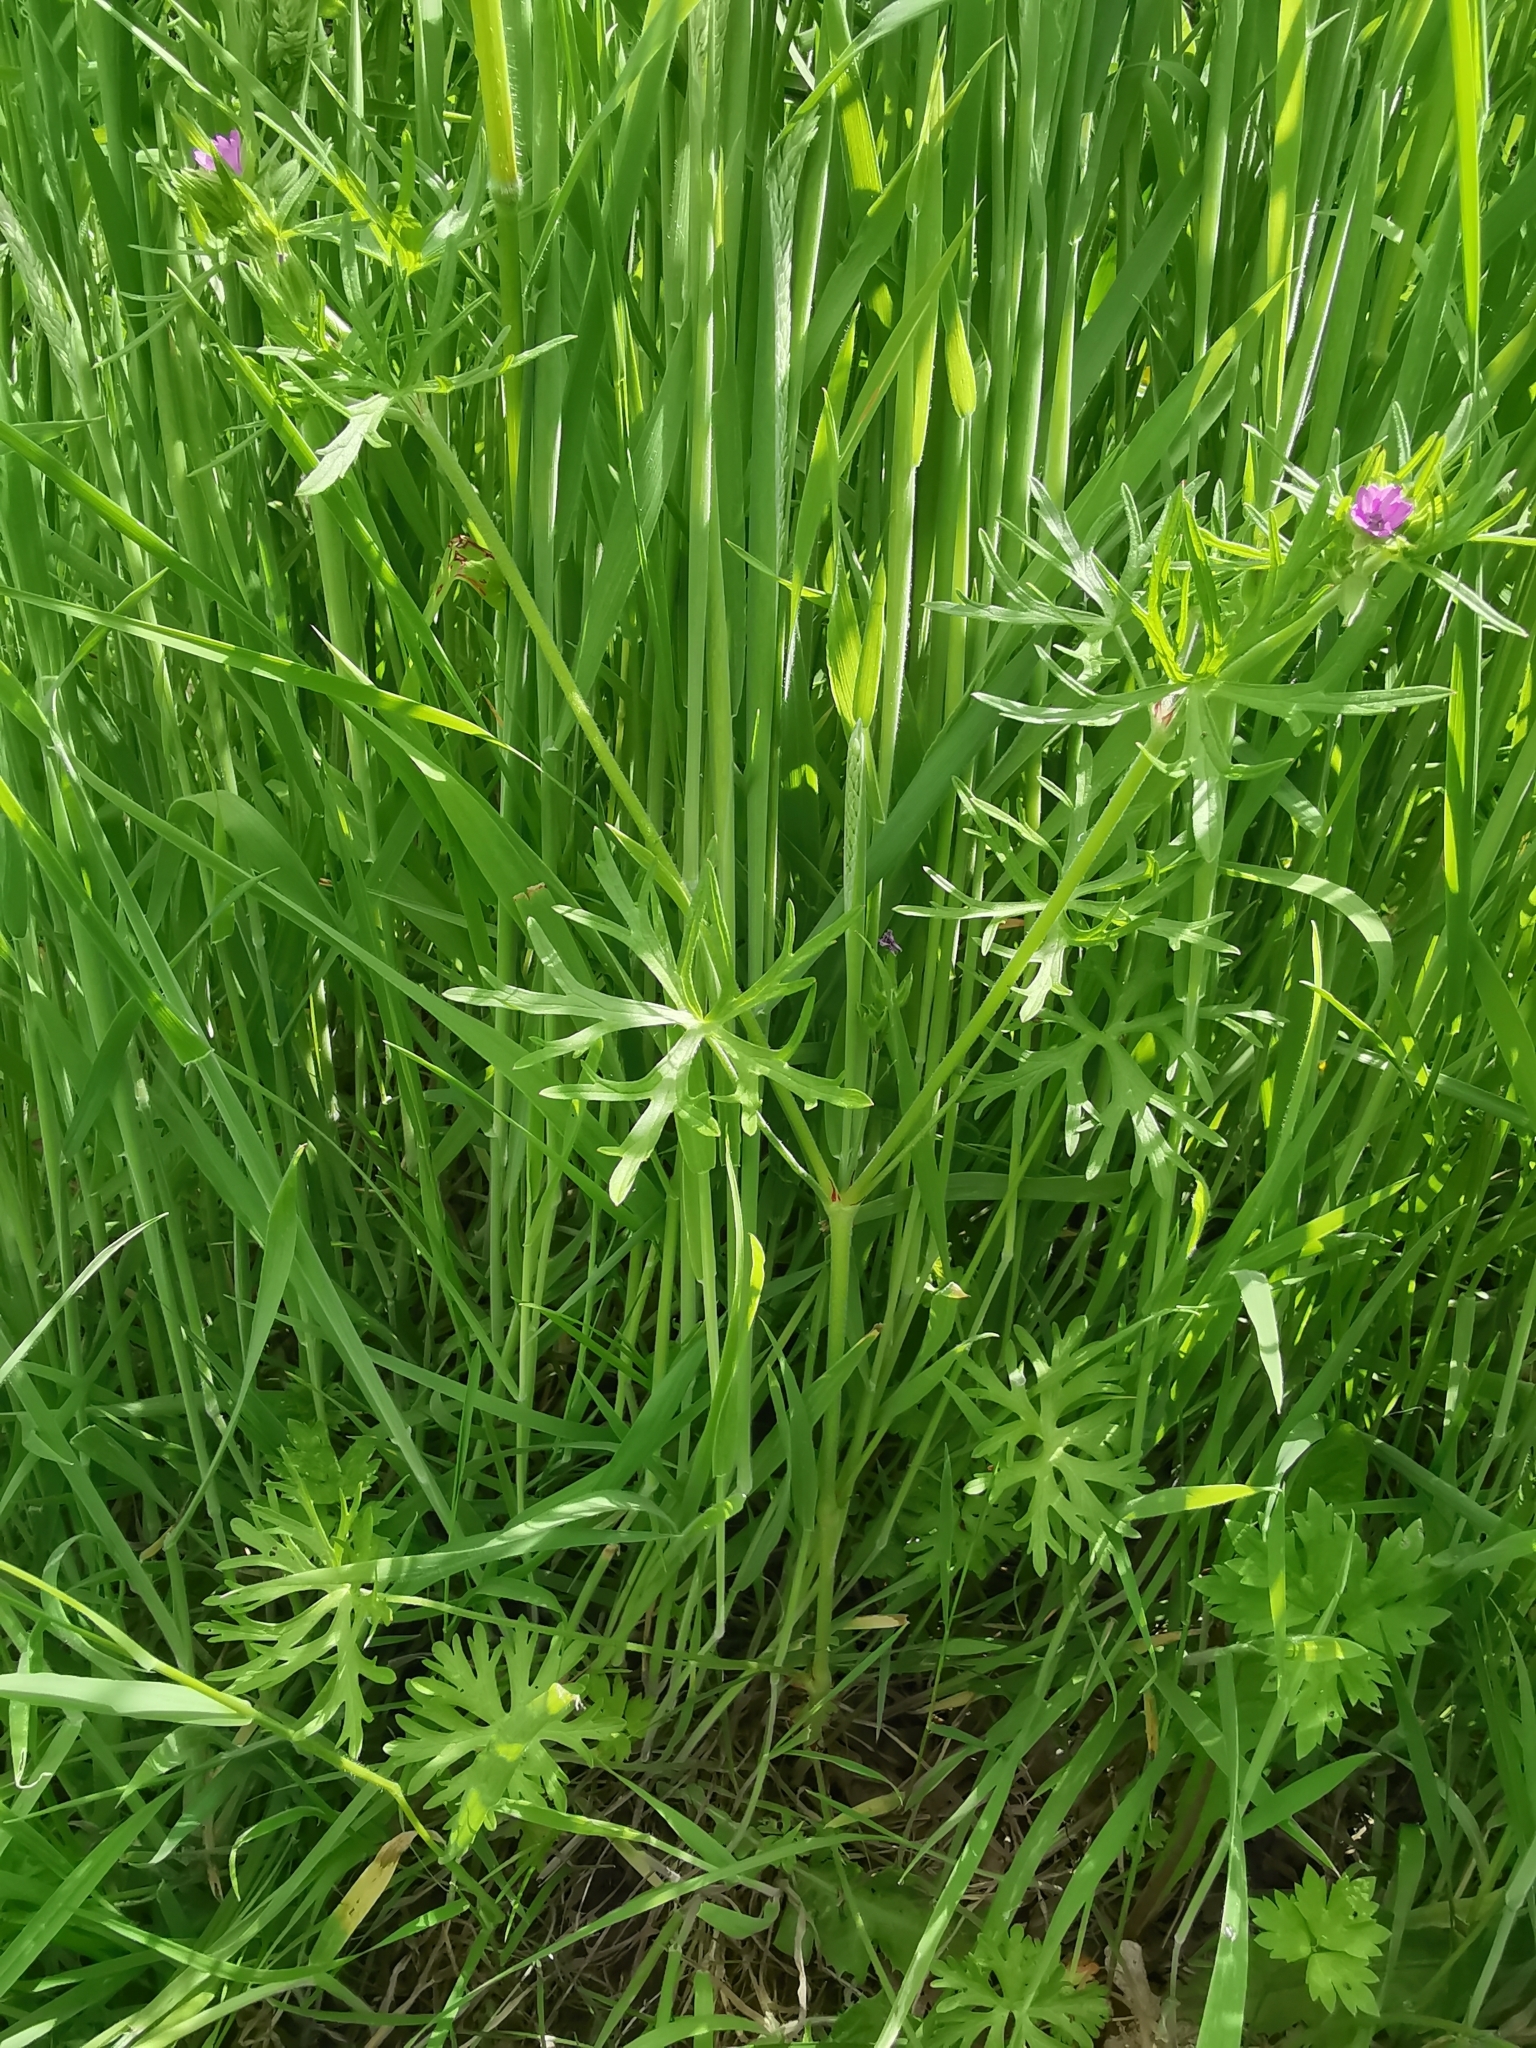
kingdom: Plantae
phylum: Tracheophyta
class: Magnoliopsida
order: Geraniales
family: Geraniaceae
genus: Geranium
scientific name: Geranium dissectum
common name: Cut-leaved crane's-bill
